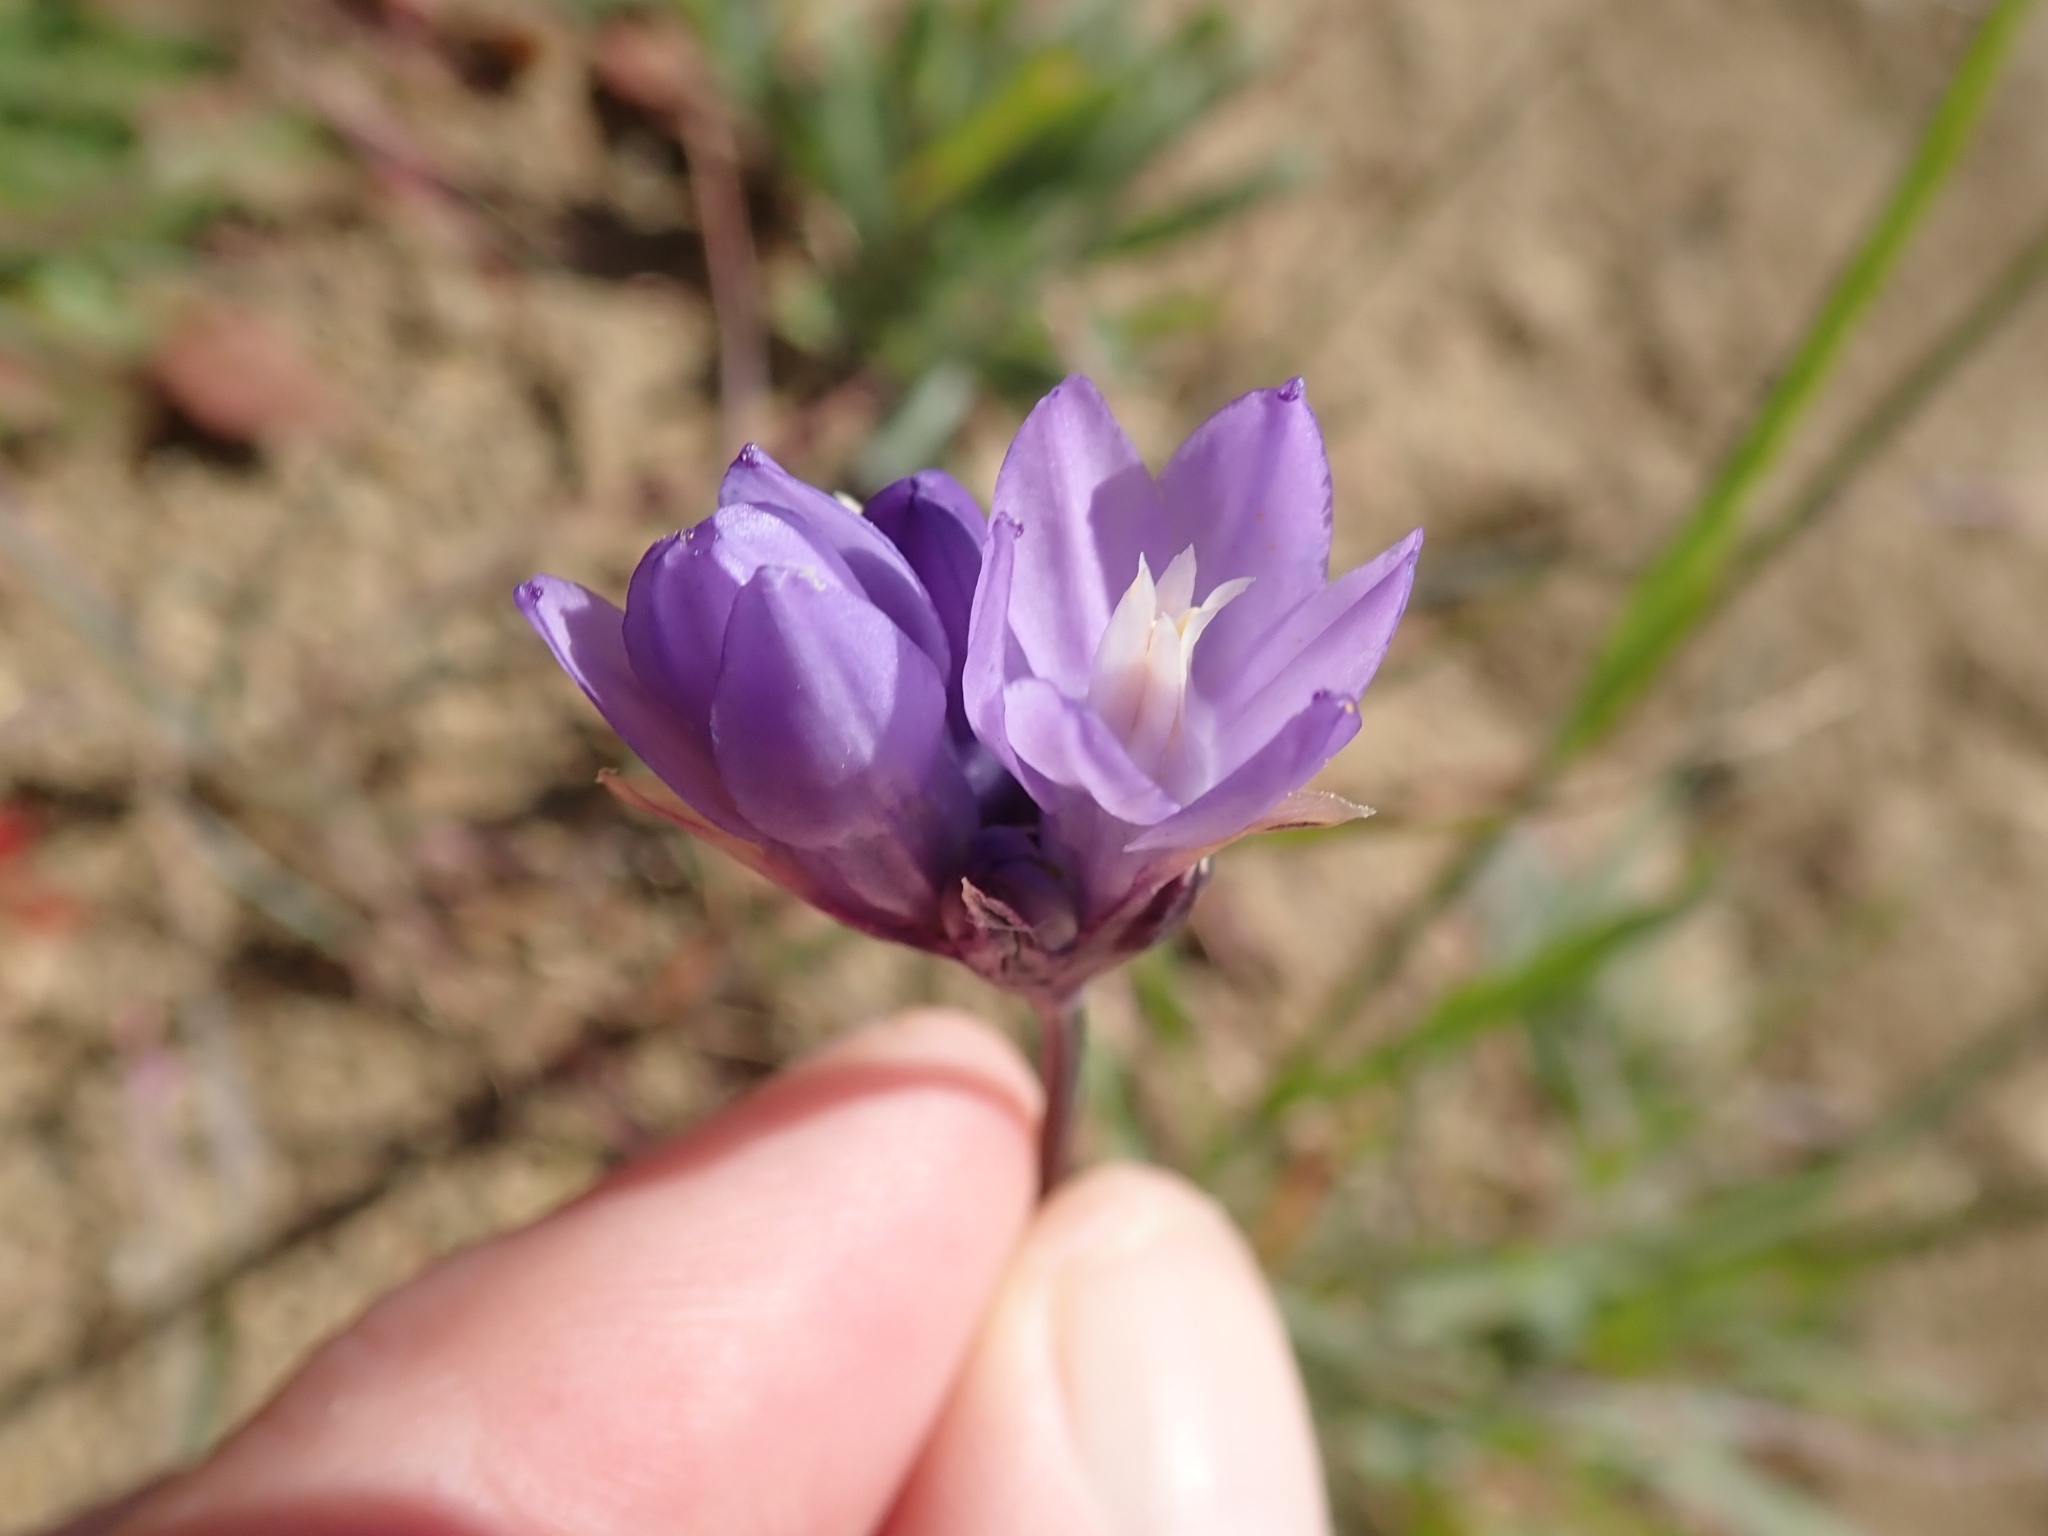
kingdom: Plantae
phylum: Tracheophyta
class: Liliopsida
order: Asparagales
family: Asparagaceae
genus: Dipterostemon
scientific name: Dipterostemon capitatus
